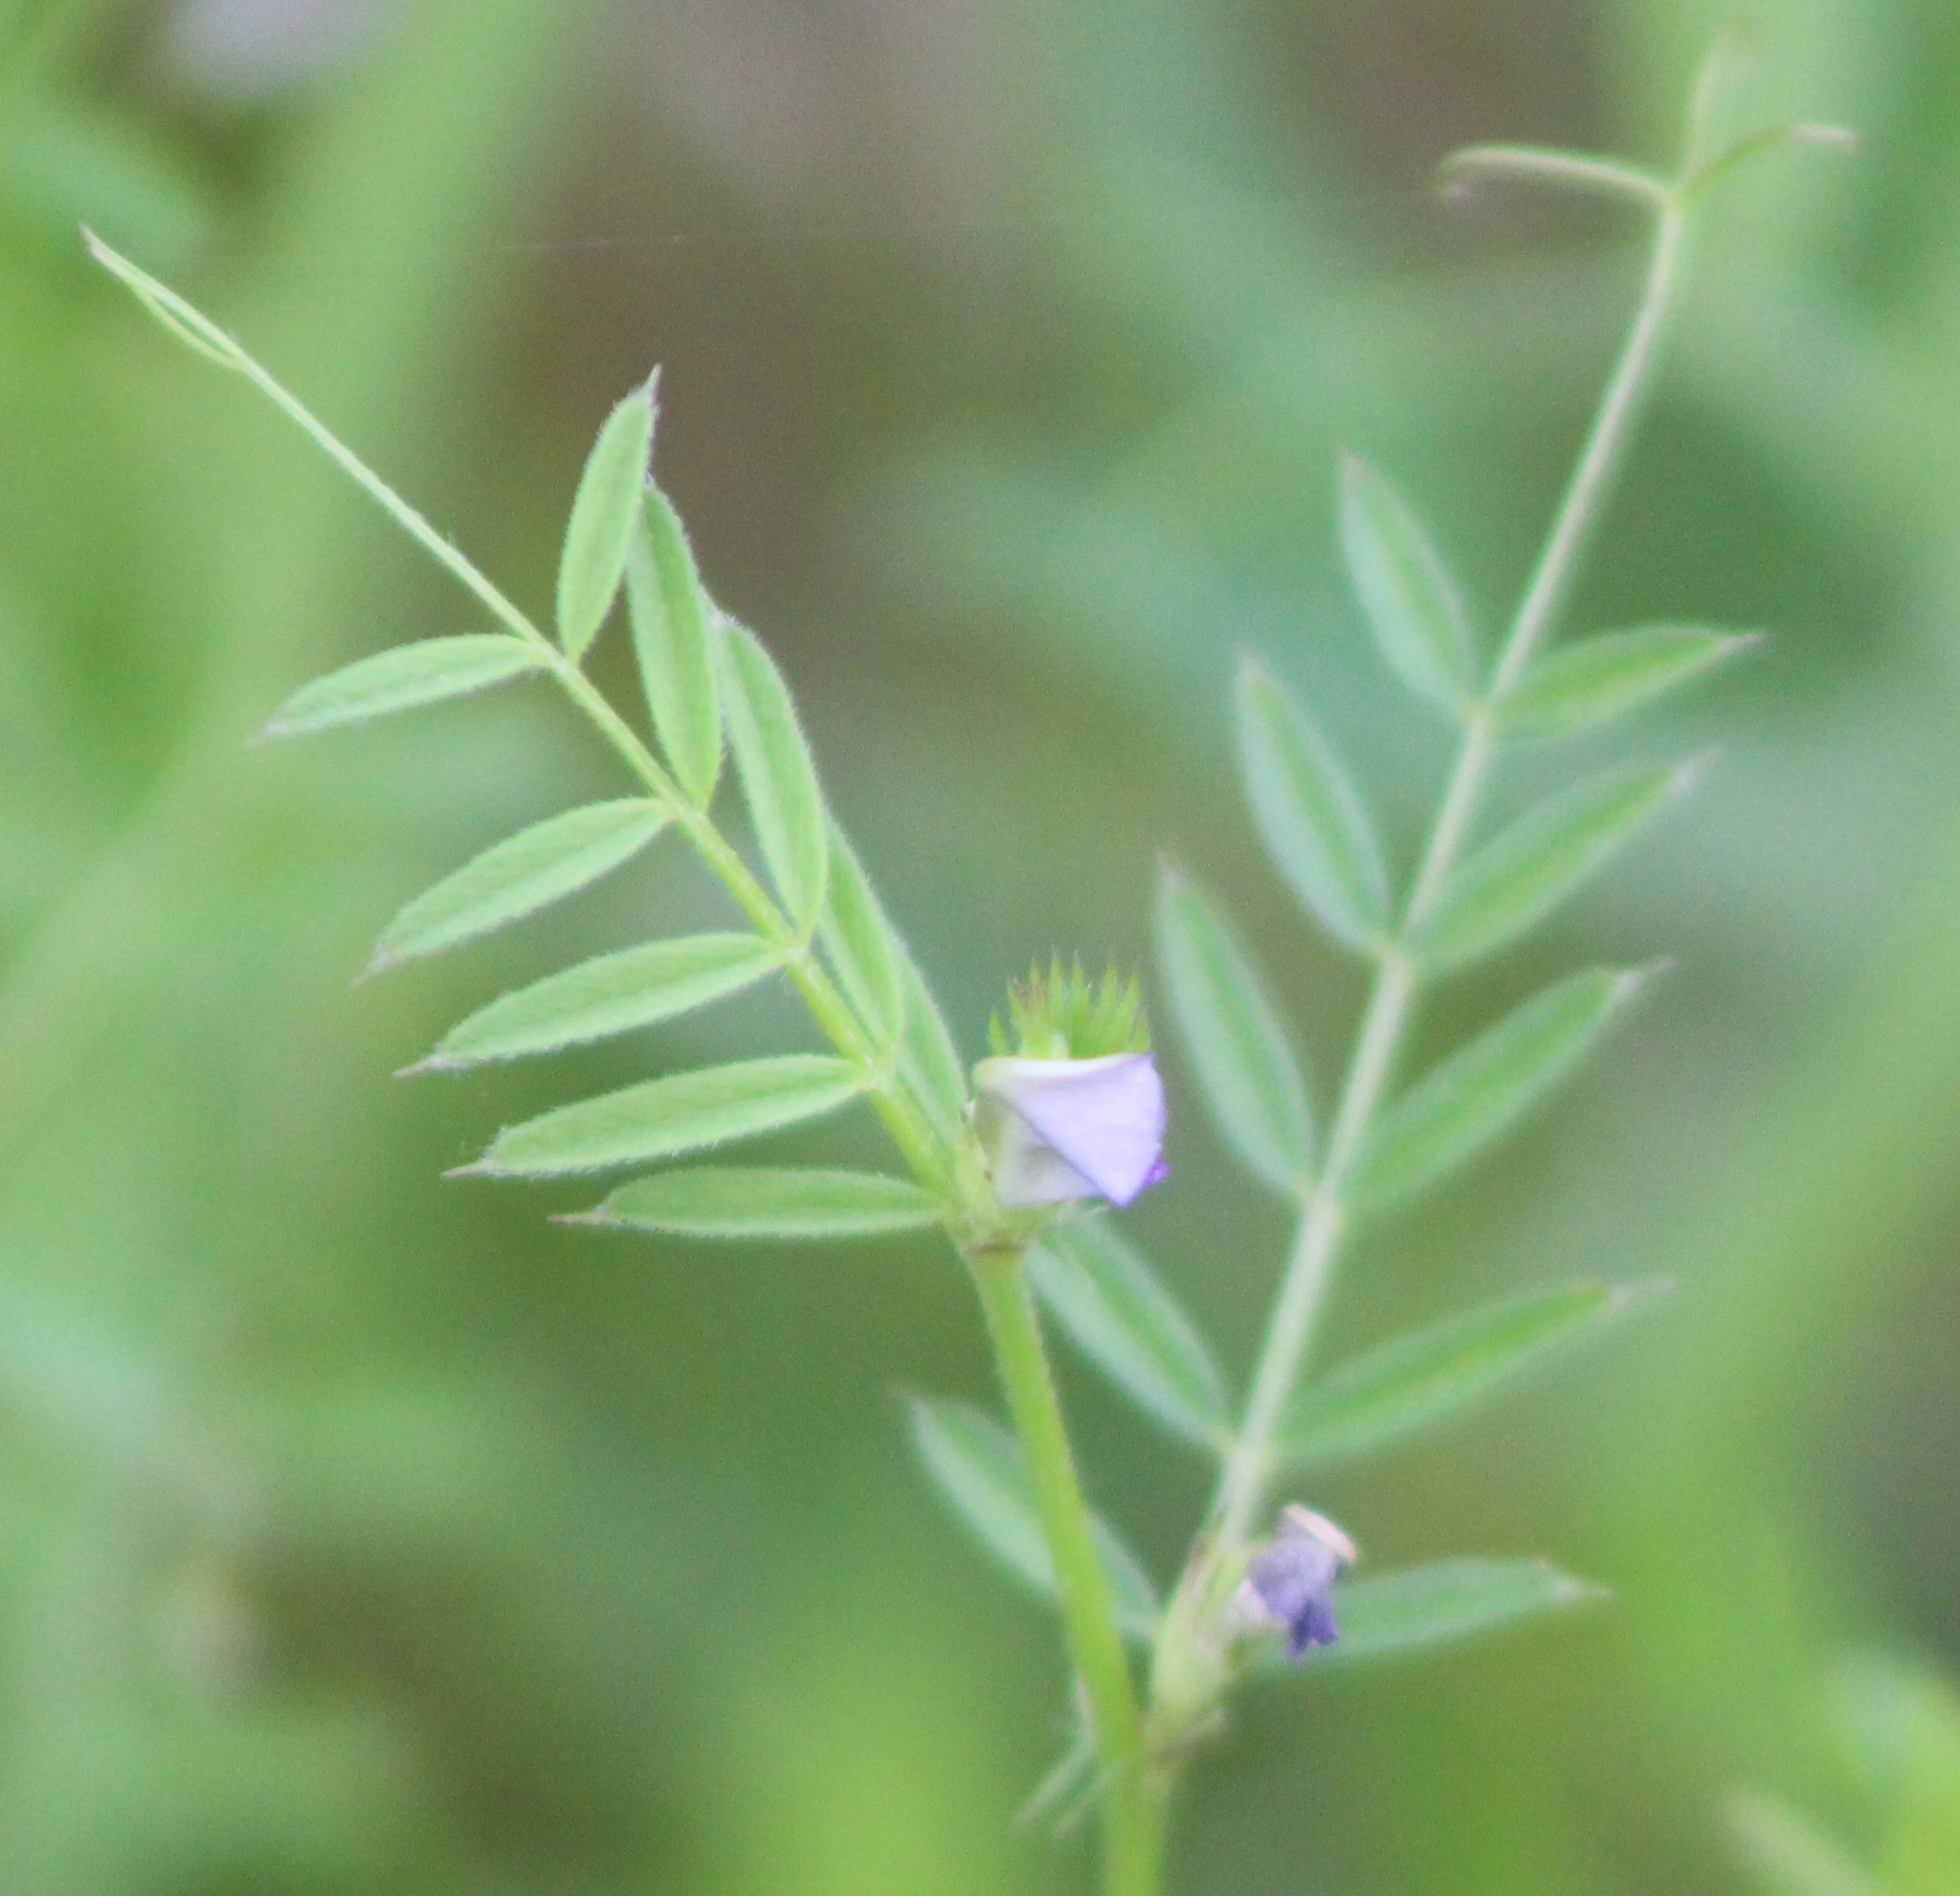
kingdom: Plantae
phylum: Tracheophyta
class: Magnoliopsida
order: Fabales
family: Fabaceae
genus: Vicia
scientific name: Vicia sativa
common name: Garden vetch
